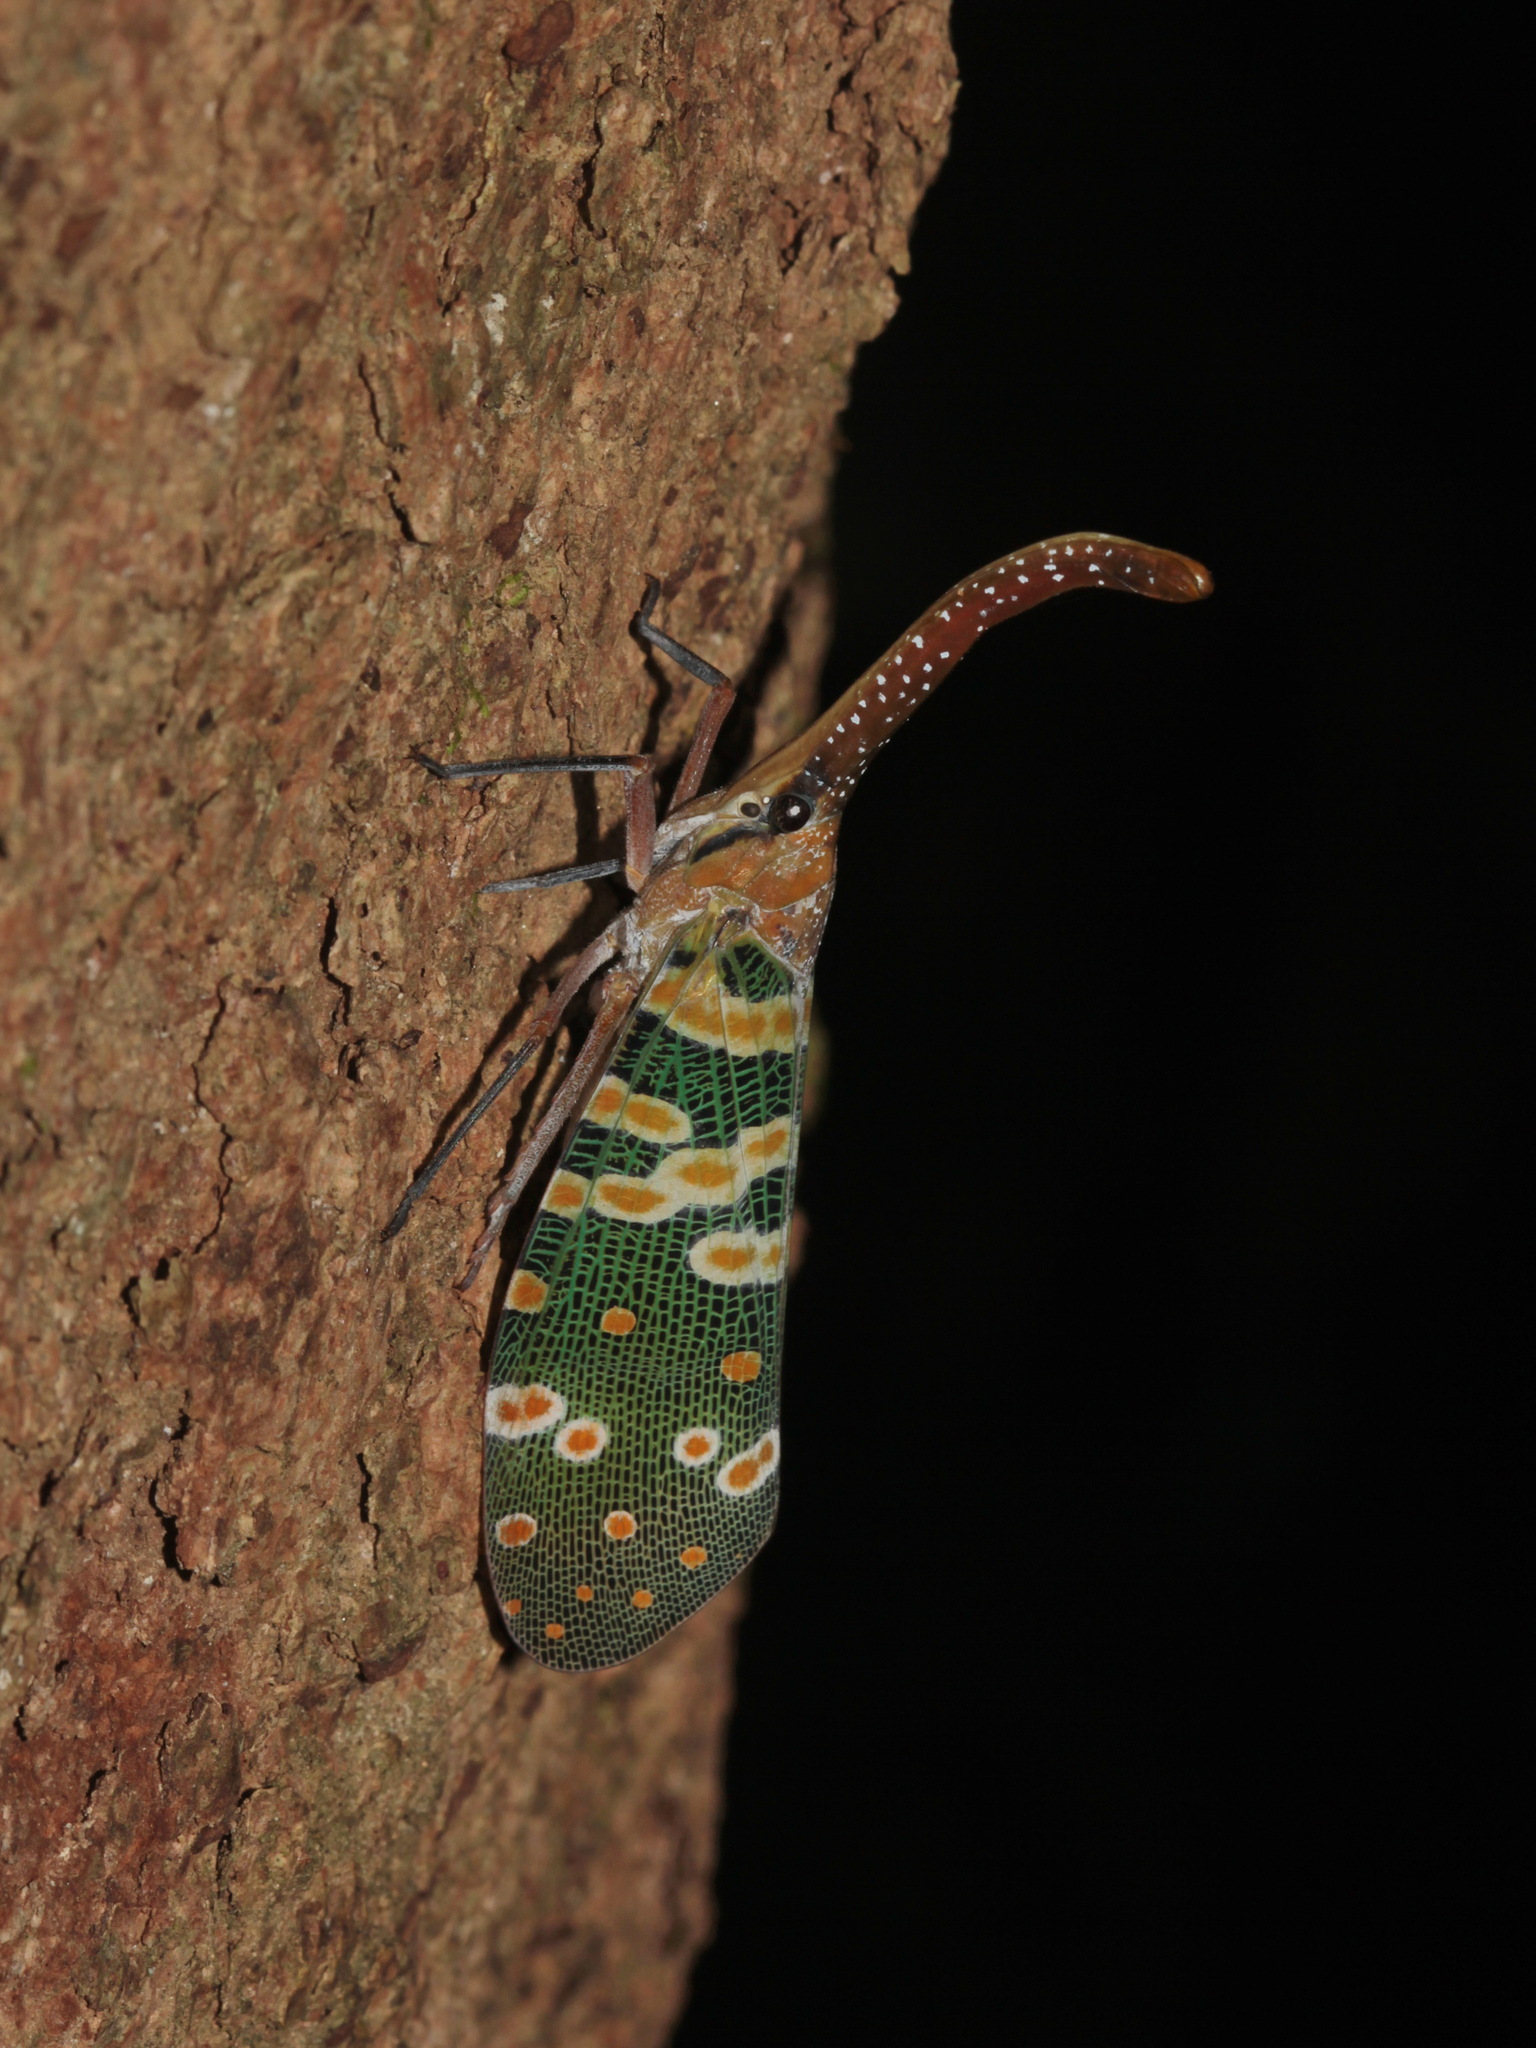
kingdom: Animalia
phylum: Arthropoda
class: Insecta
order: Hemiptera
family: Fulgoridae
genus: Pyrops
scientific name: Pyrops candelaria
